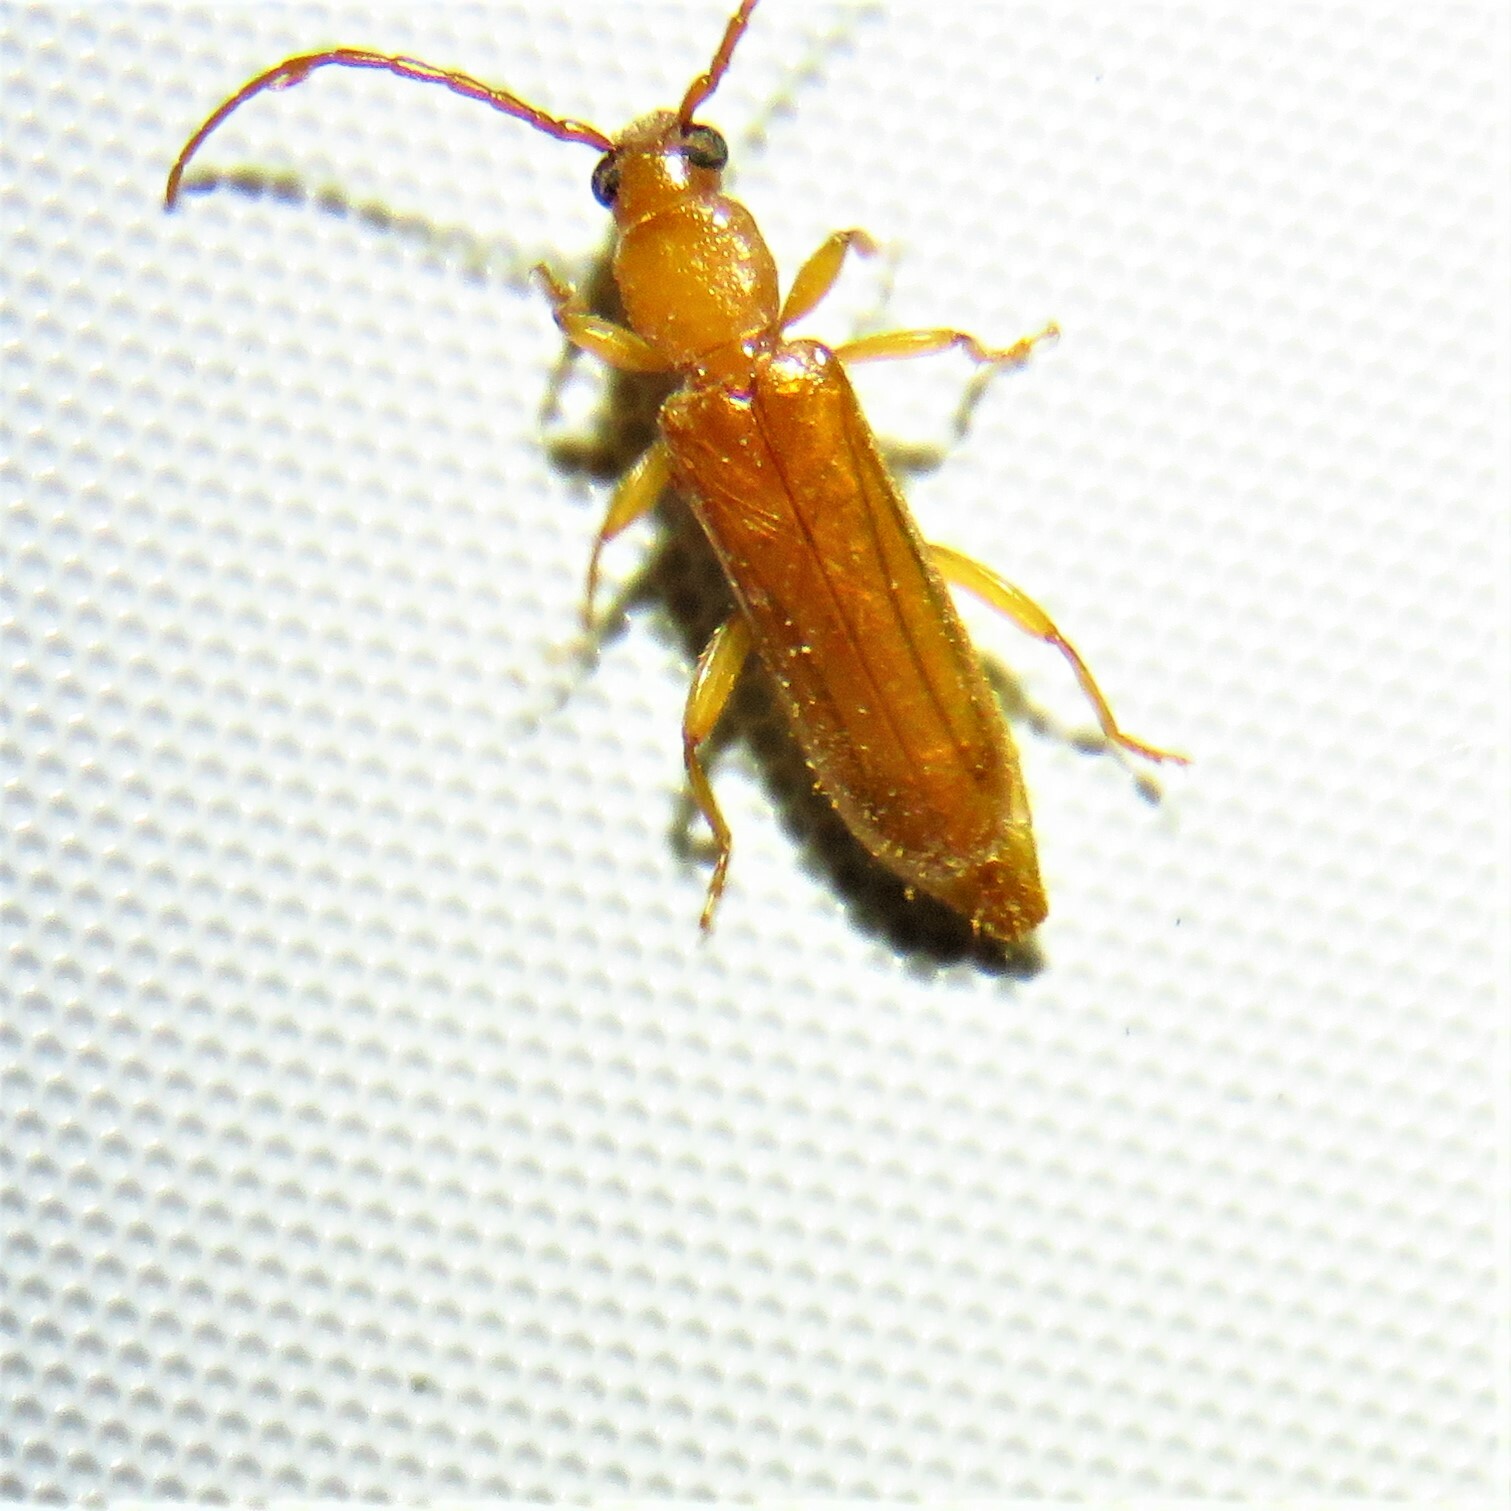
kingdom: Animalia
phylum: Arthropoda
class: Insecta
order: Coleoptera
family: Cerambycidae
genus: Smodicum
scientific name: Smodicum cucujiforme
